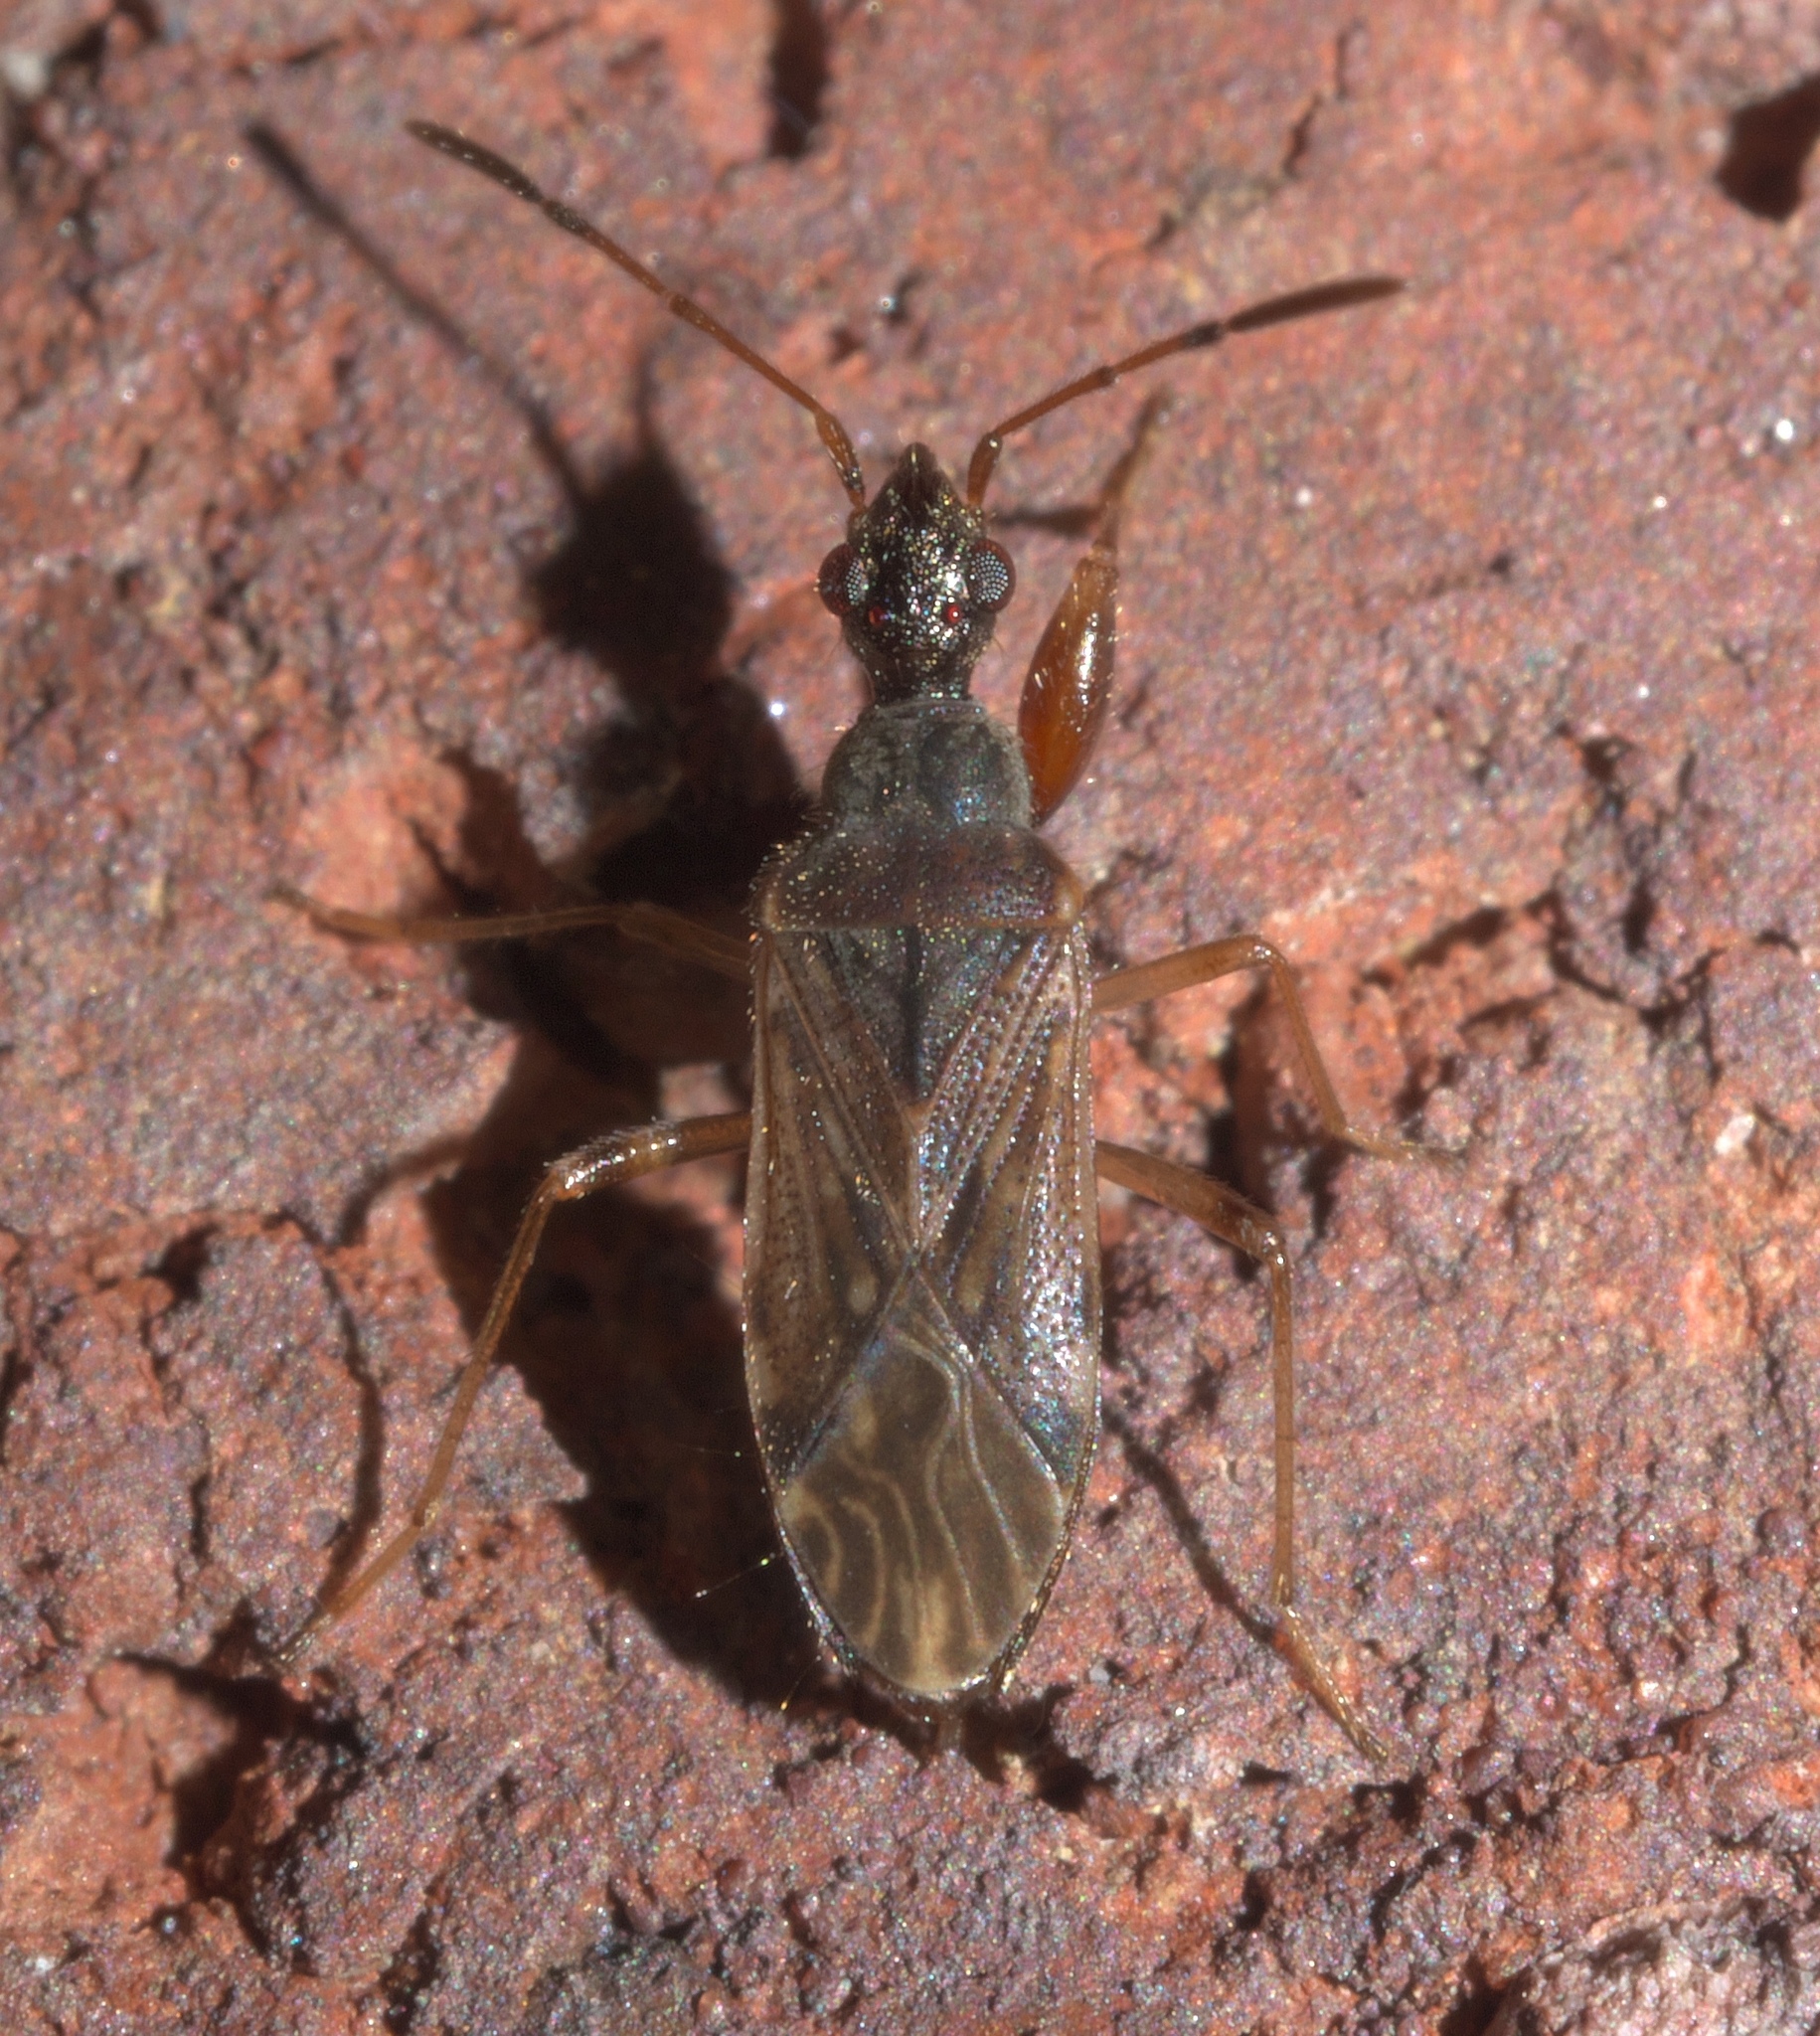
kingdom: Animalia
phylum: Arthropoda
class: Insecta
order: Hemiptera
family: Rhyparochromidae
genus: Heraeus
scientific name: Heraeus plebejus
